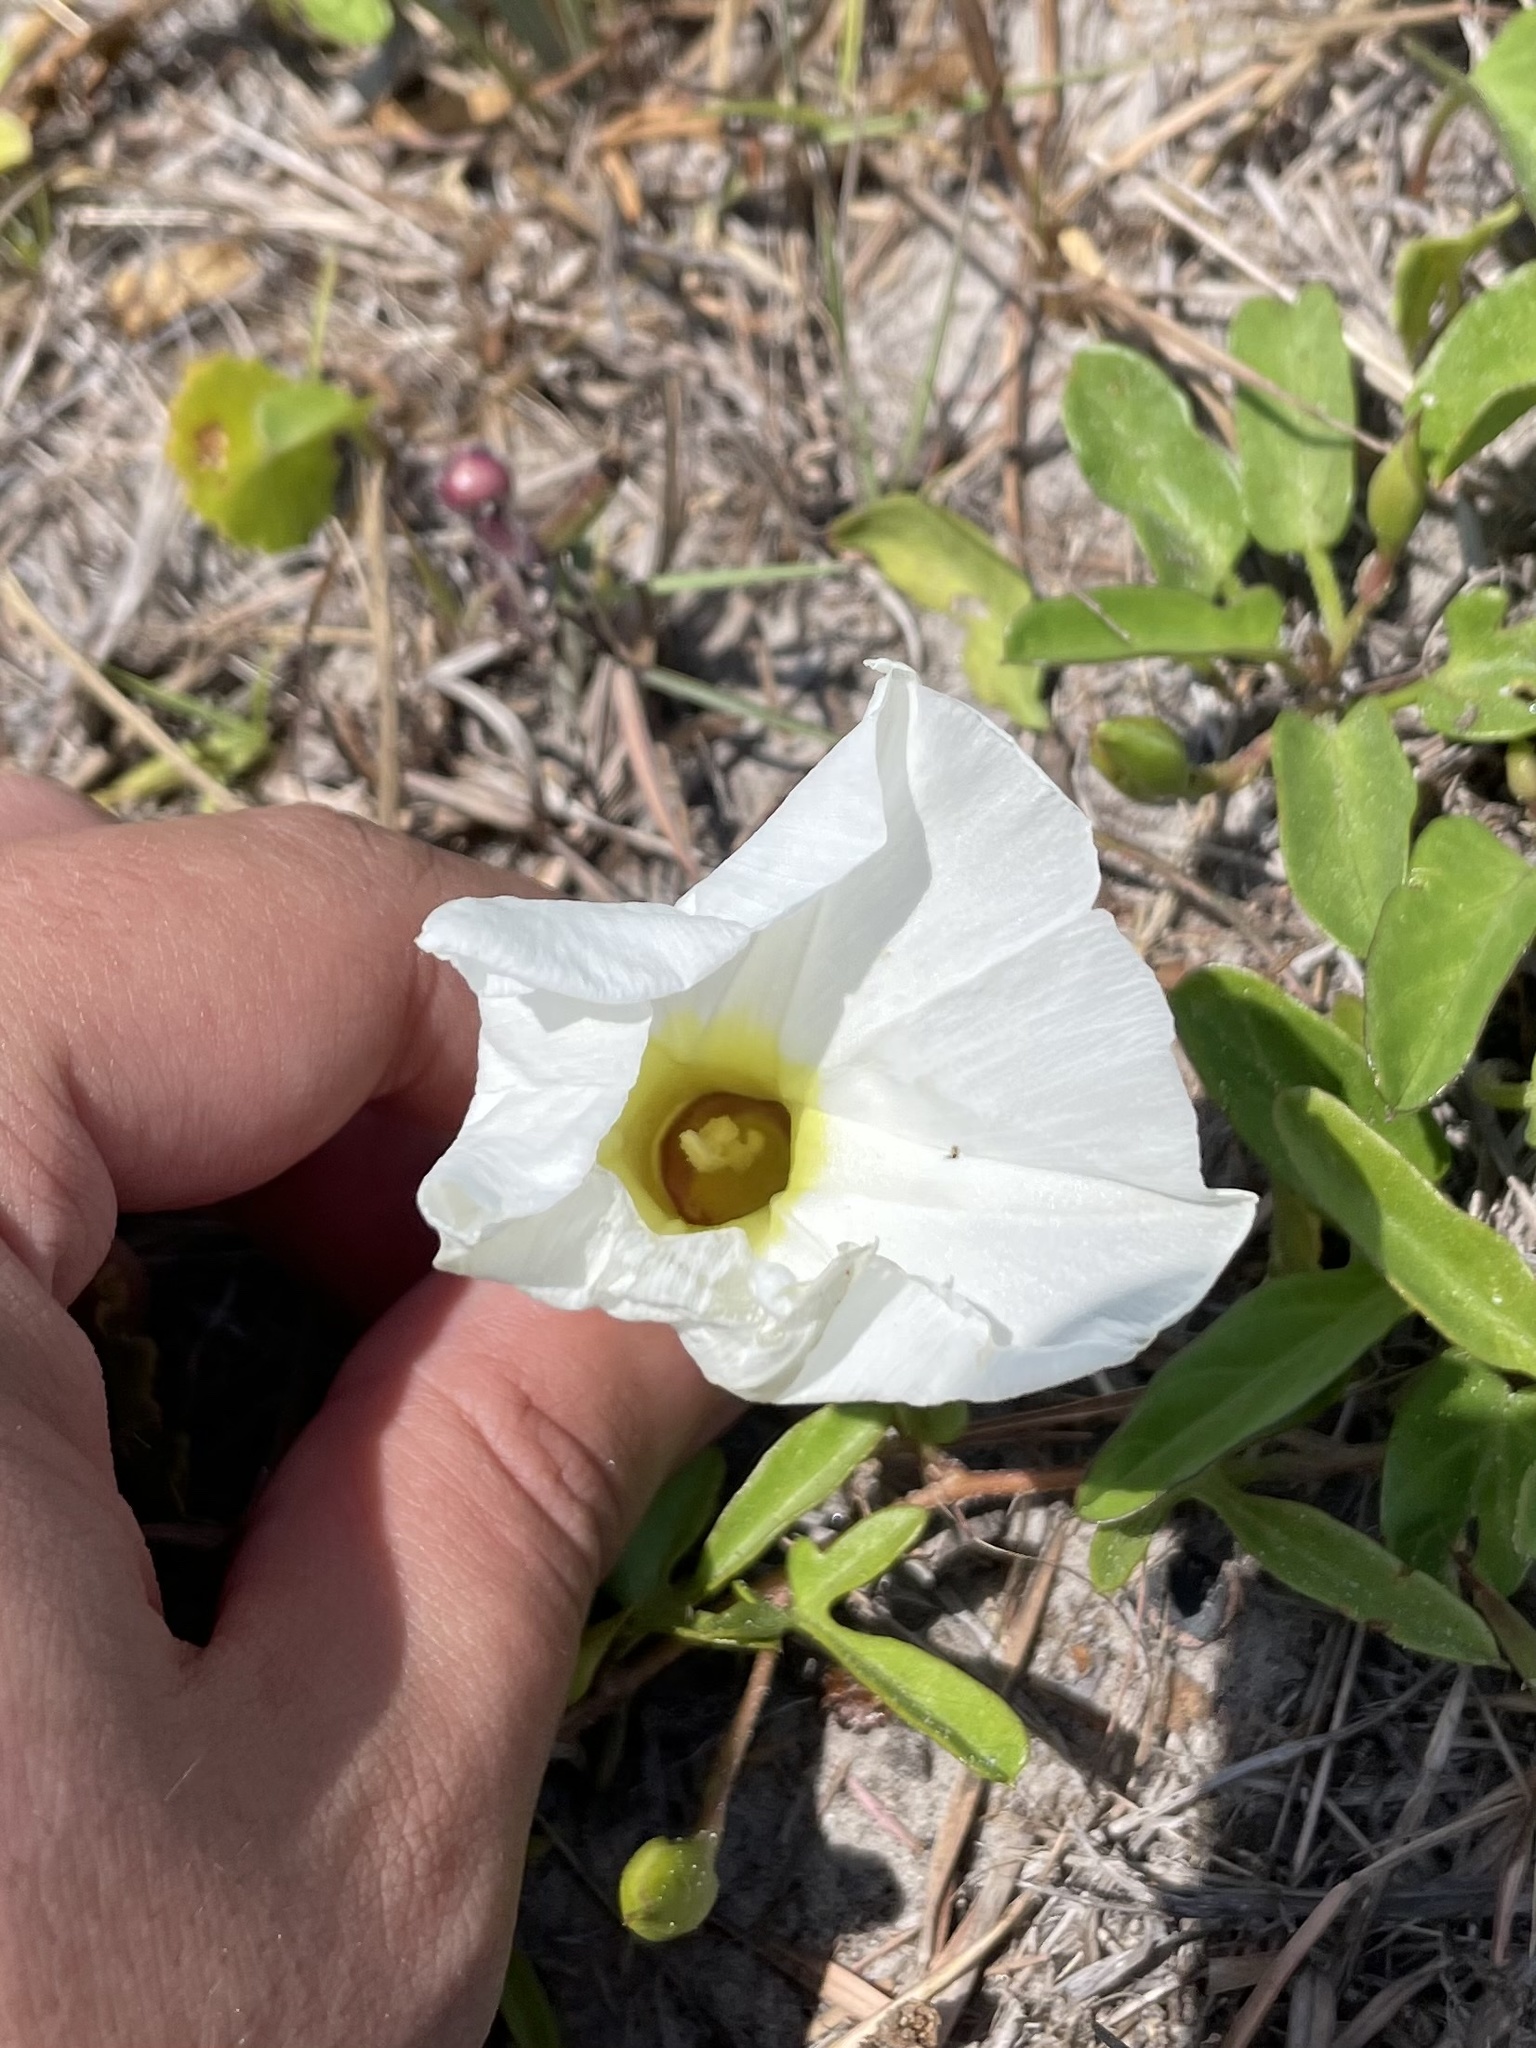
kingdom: Plantae
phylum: Tracheophyta
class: Magnoliopsida
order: Solanales
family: Convolvulaceae
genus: Ipomoea
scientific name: Ipomoea imperati
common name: Fiddle-leaf morning-glory
